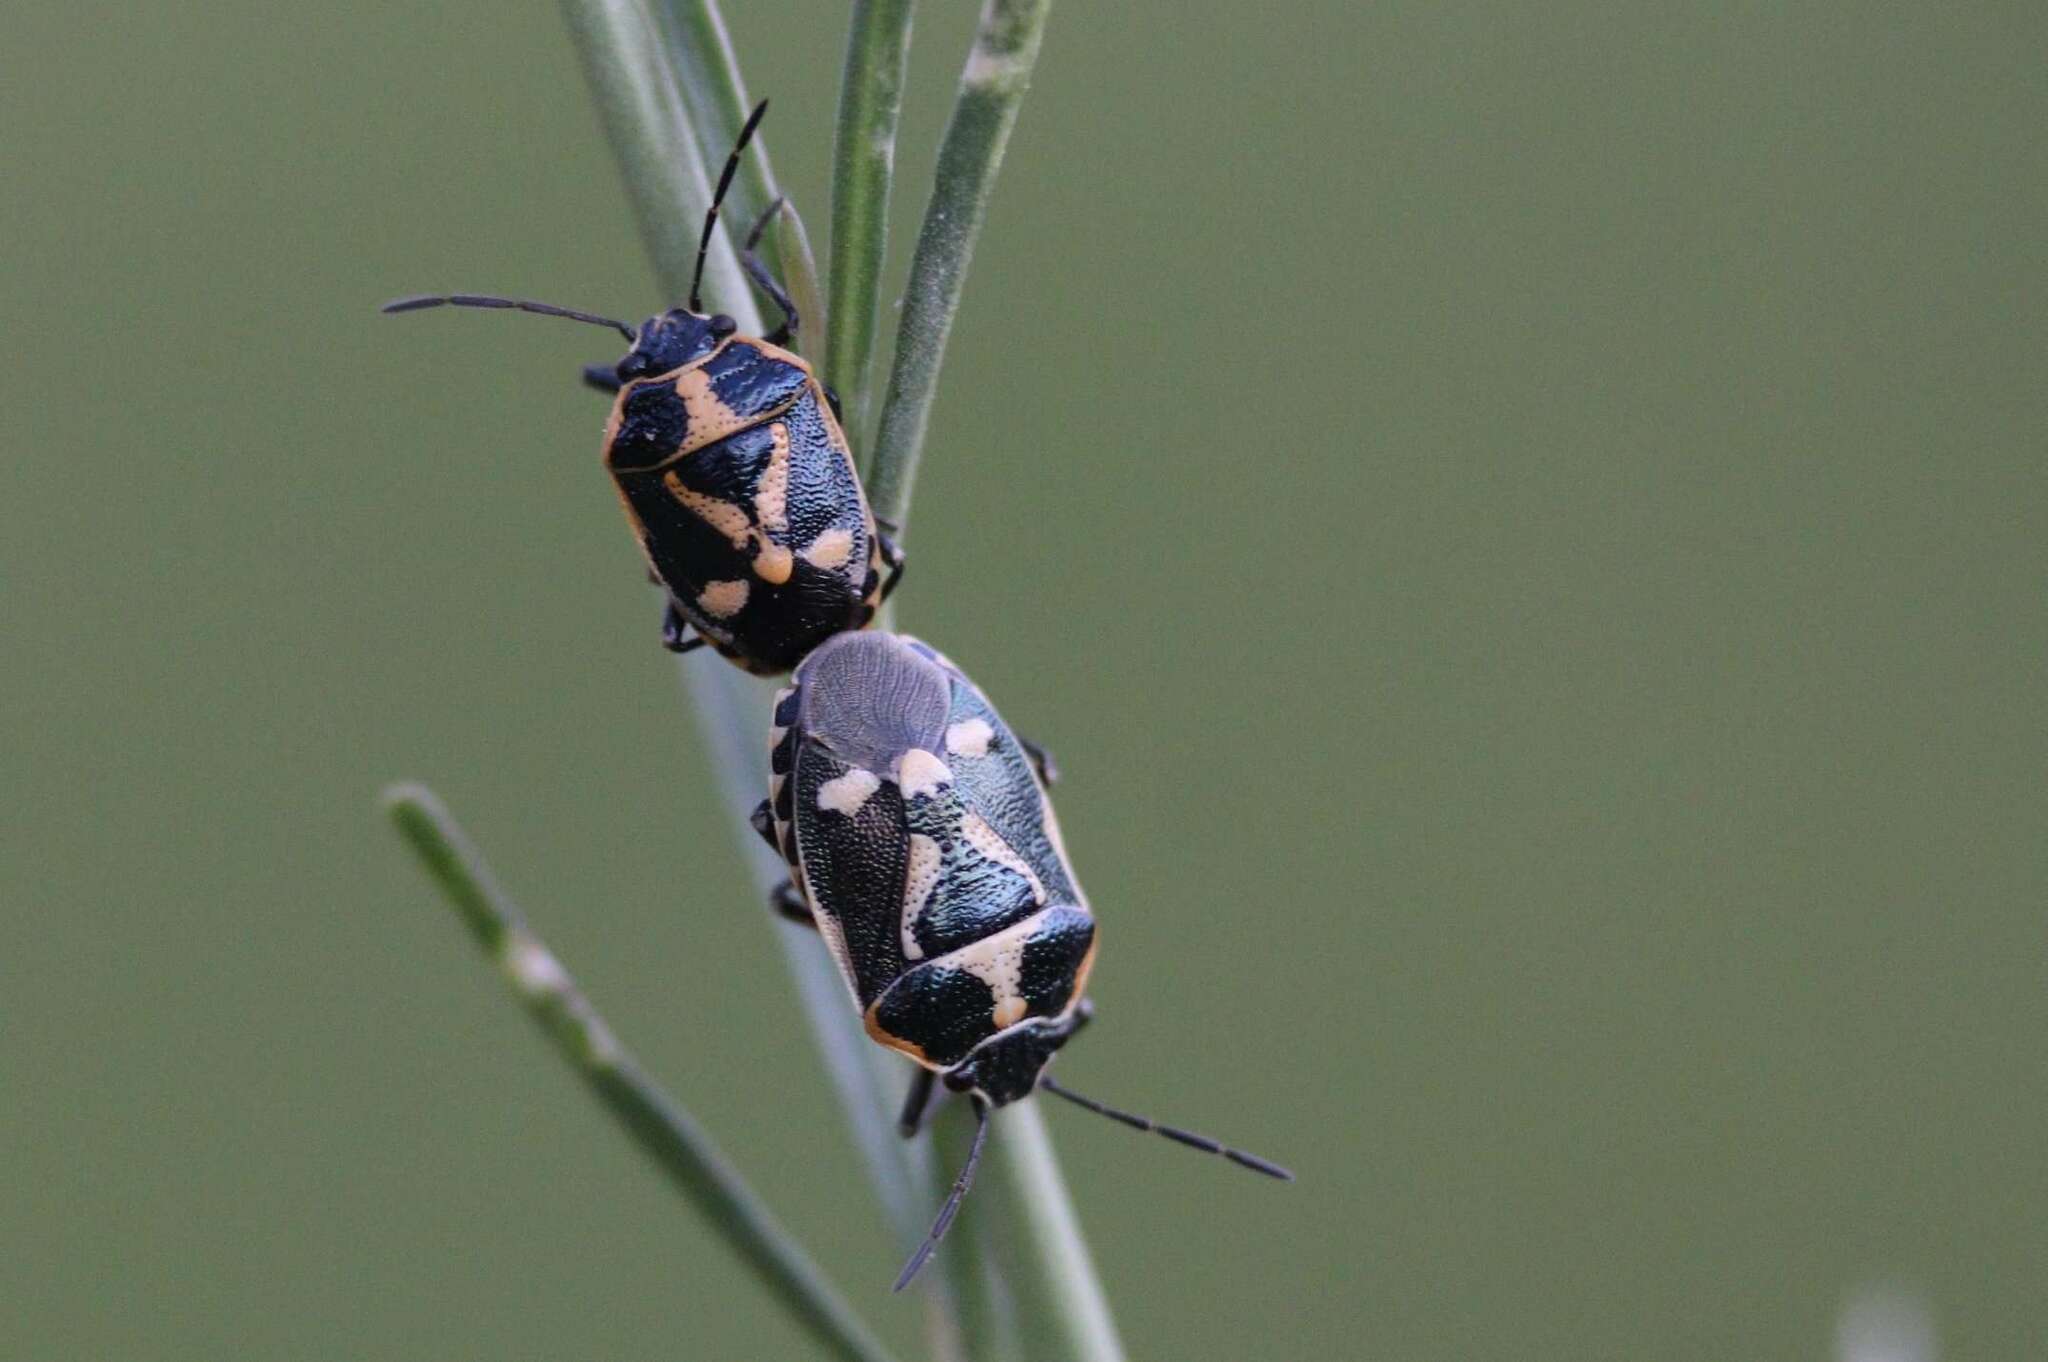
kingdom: Animalia
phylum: Arthropoda
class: Insecta
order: Hemiptera
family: Pentatomidae
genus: Eurydema
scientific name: Eurydema oleracea
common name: Cabbage bug
